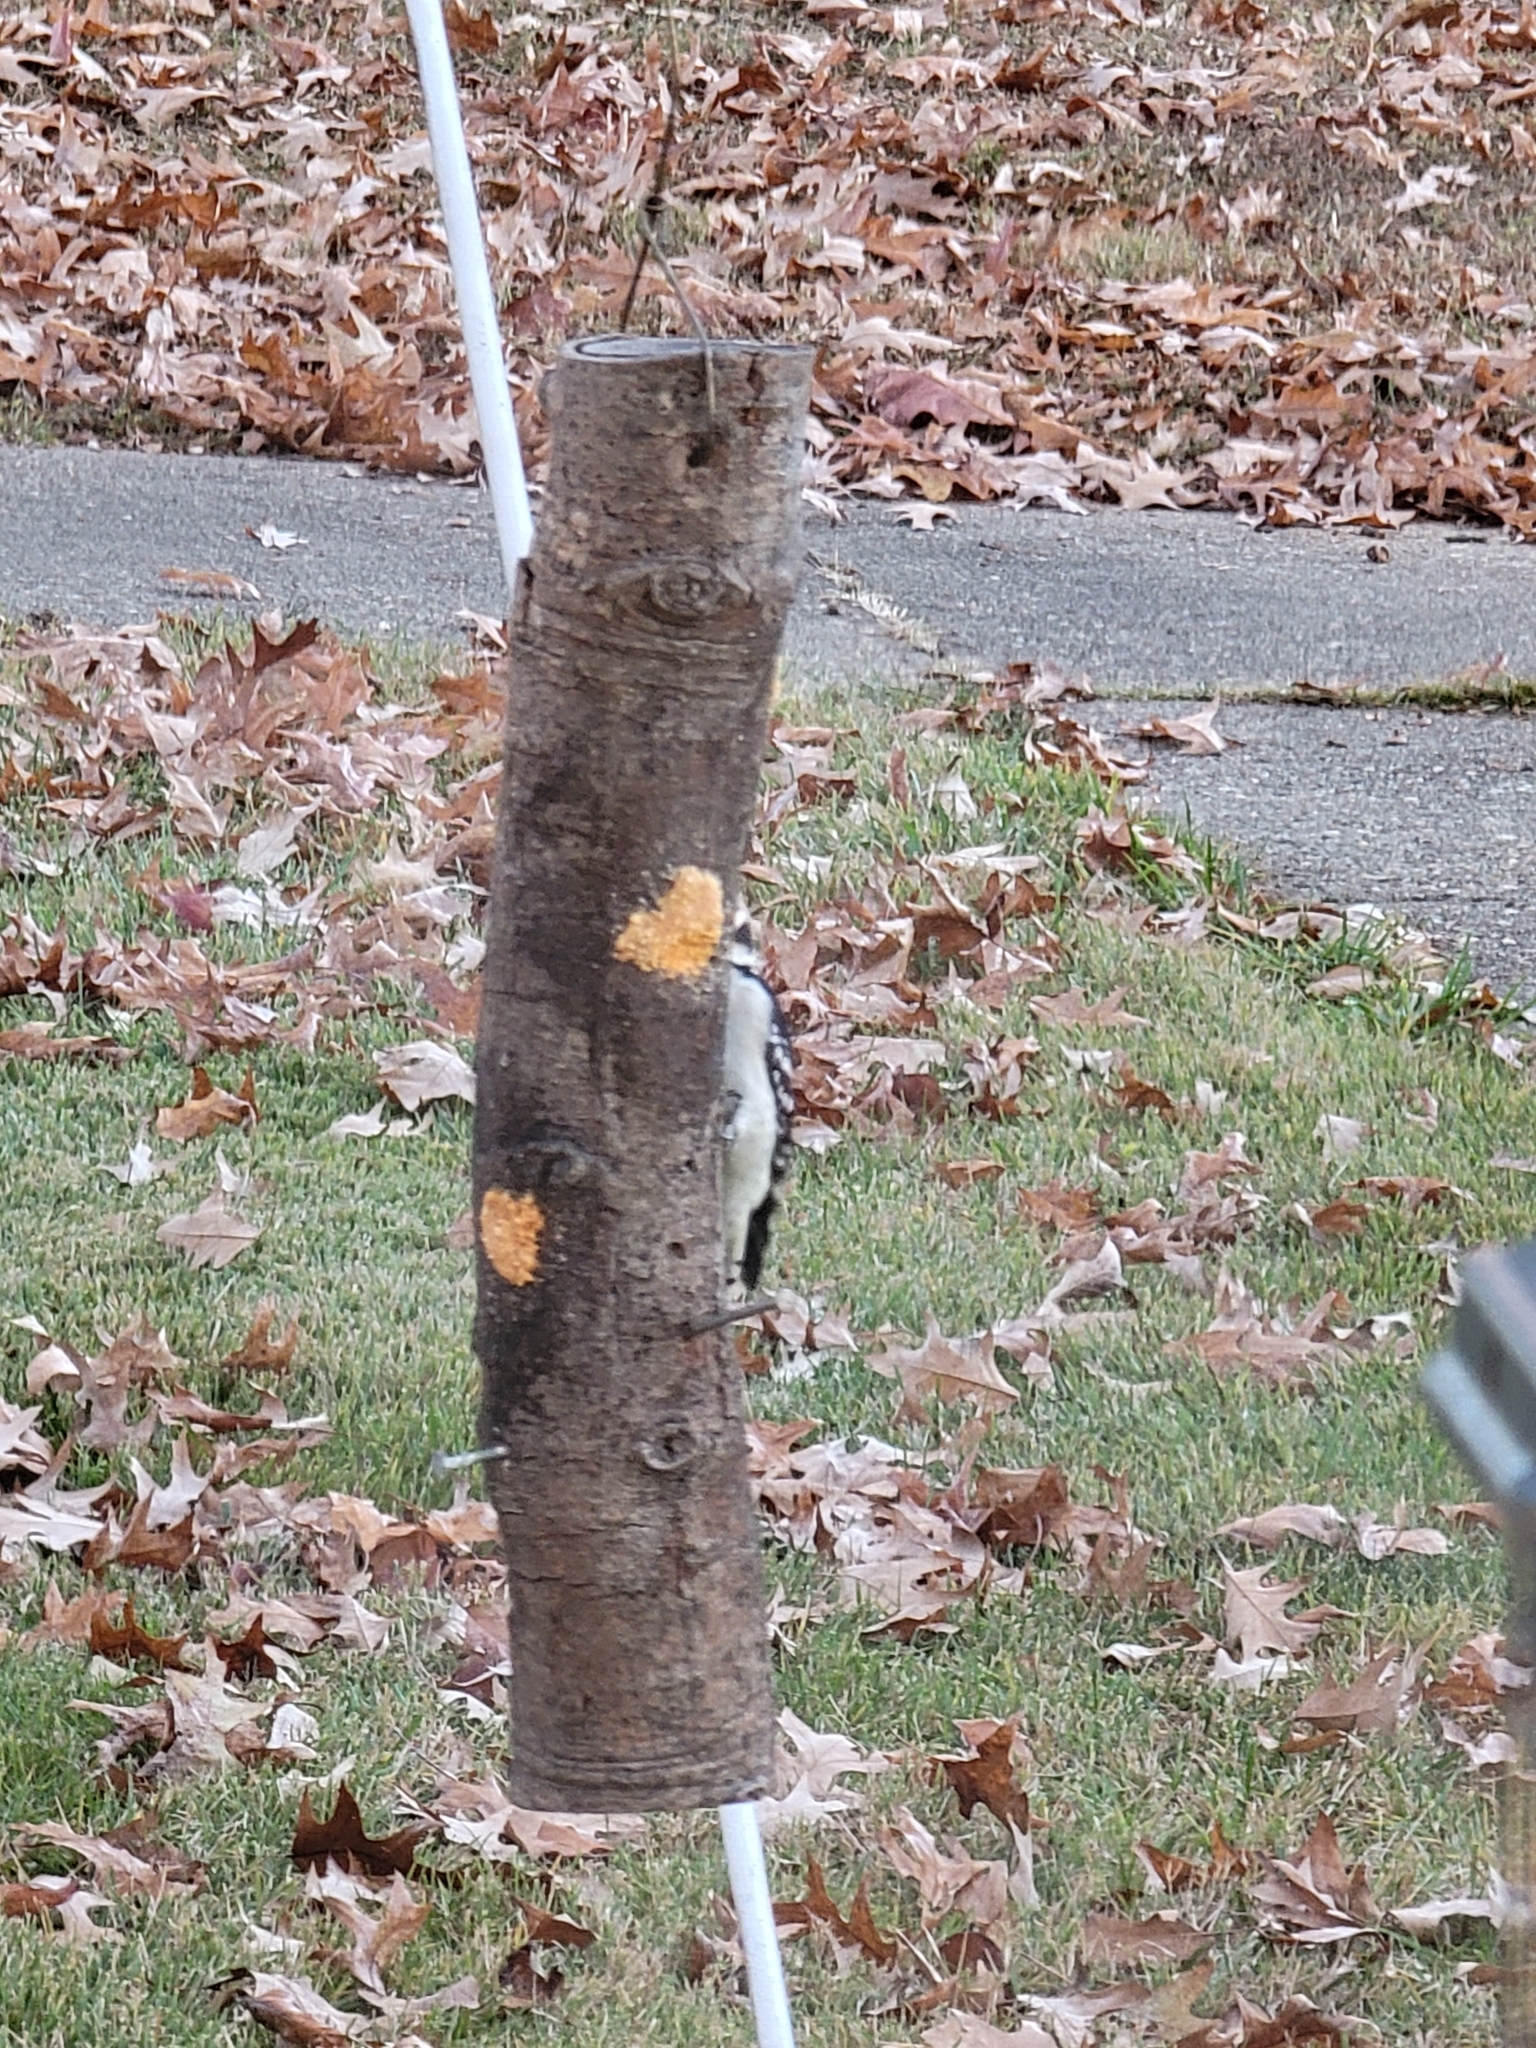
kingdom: Animalia
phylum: Chordata
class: Aves
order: Piciformes
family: Picidae
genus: Dryobates
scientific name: Dryobates pubescens
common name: Downy woodpecker
